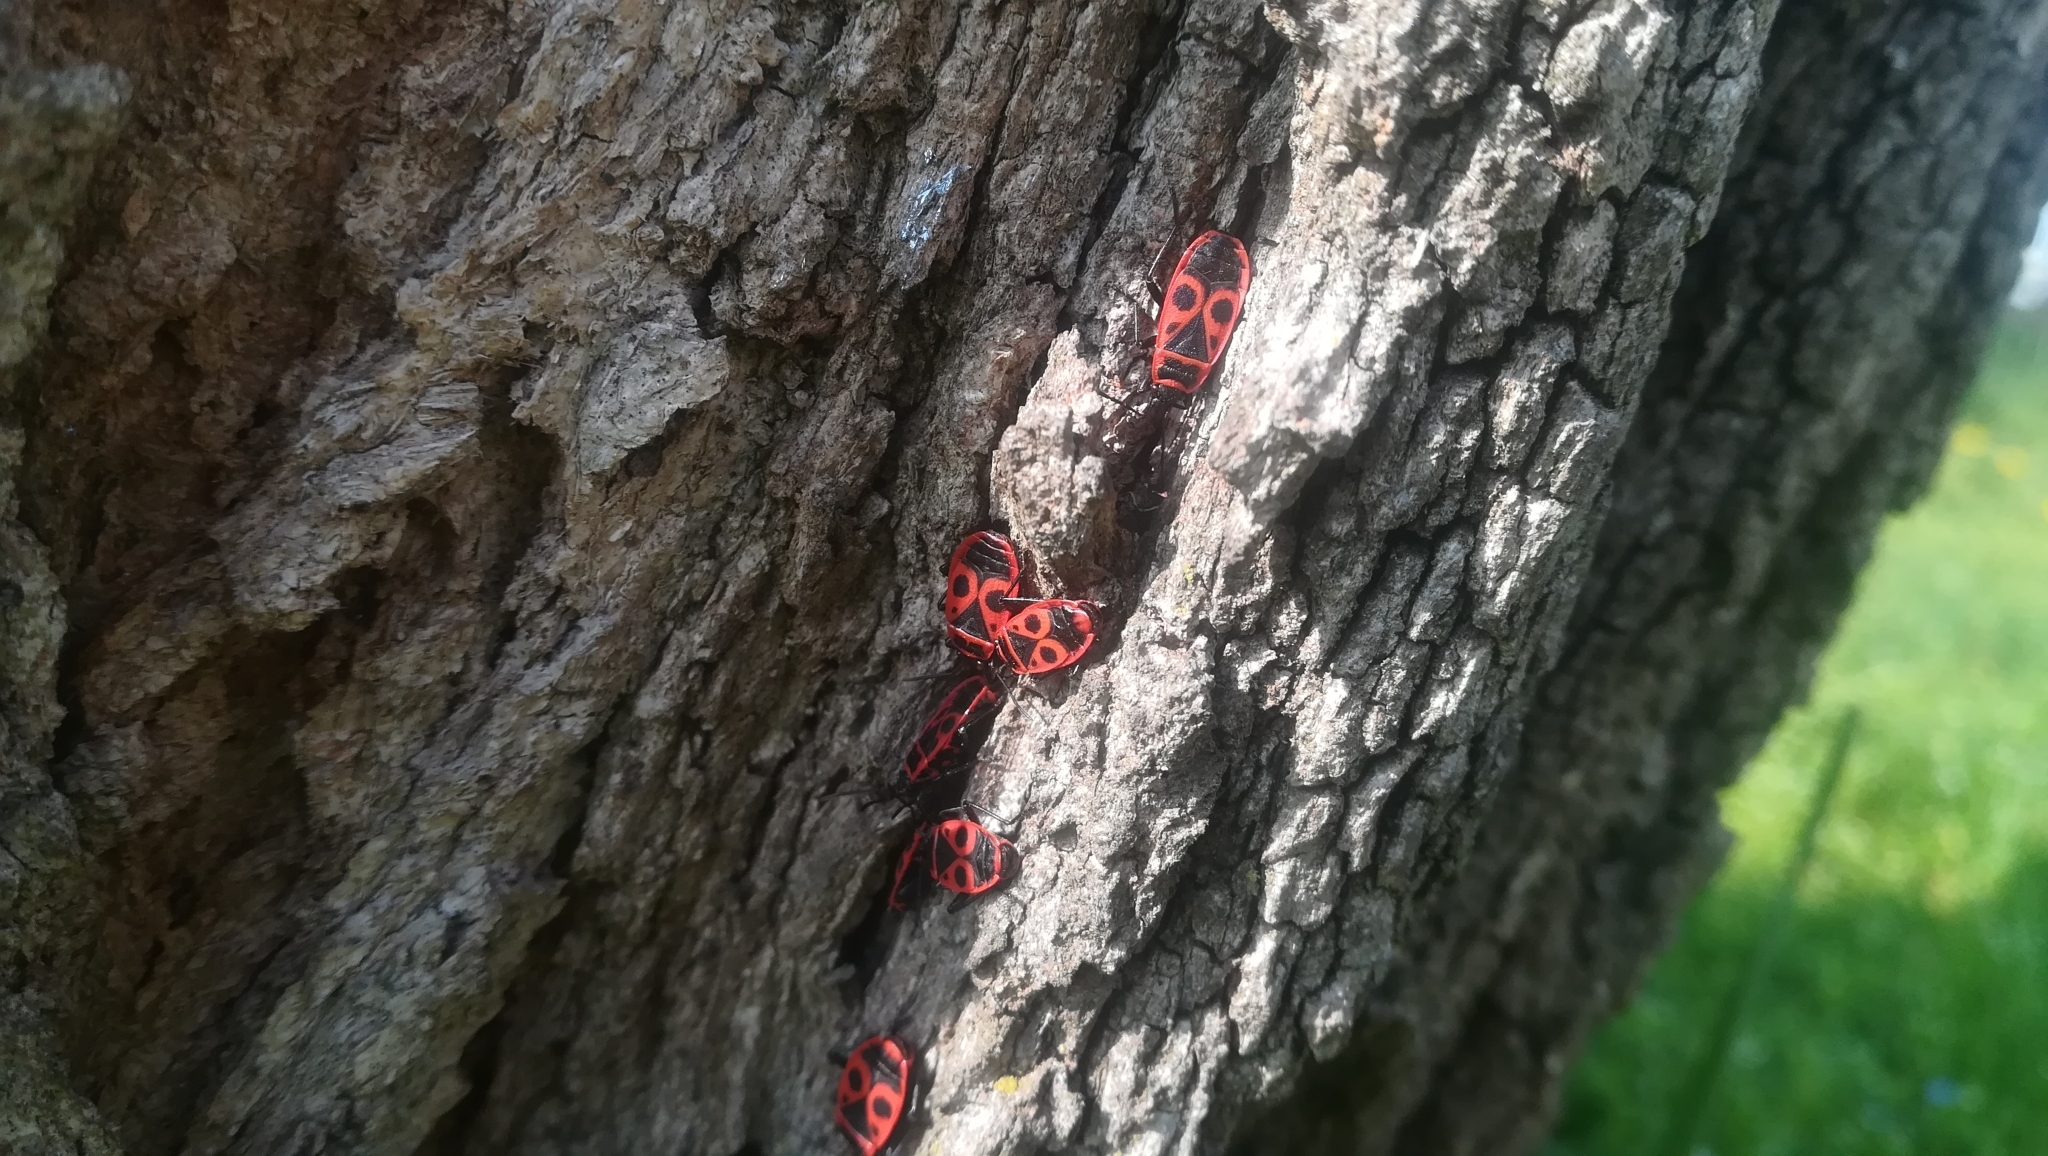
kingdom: Animalia
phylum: Arthropoda
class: Insecta
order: Hemiptera
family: Pyrrhocoridae
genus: Pyrrhocoris
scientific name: Pyrrhocoris apterus
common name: Firebug
